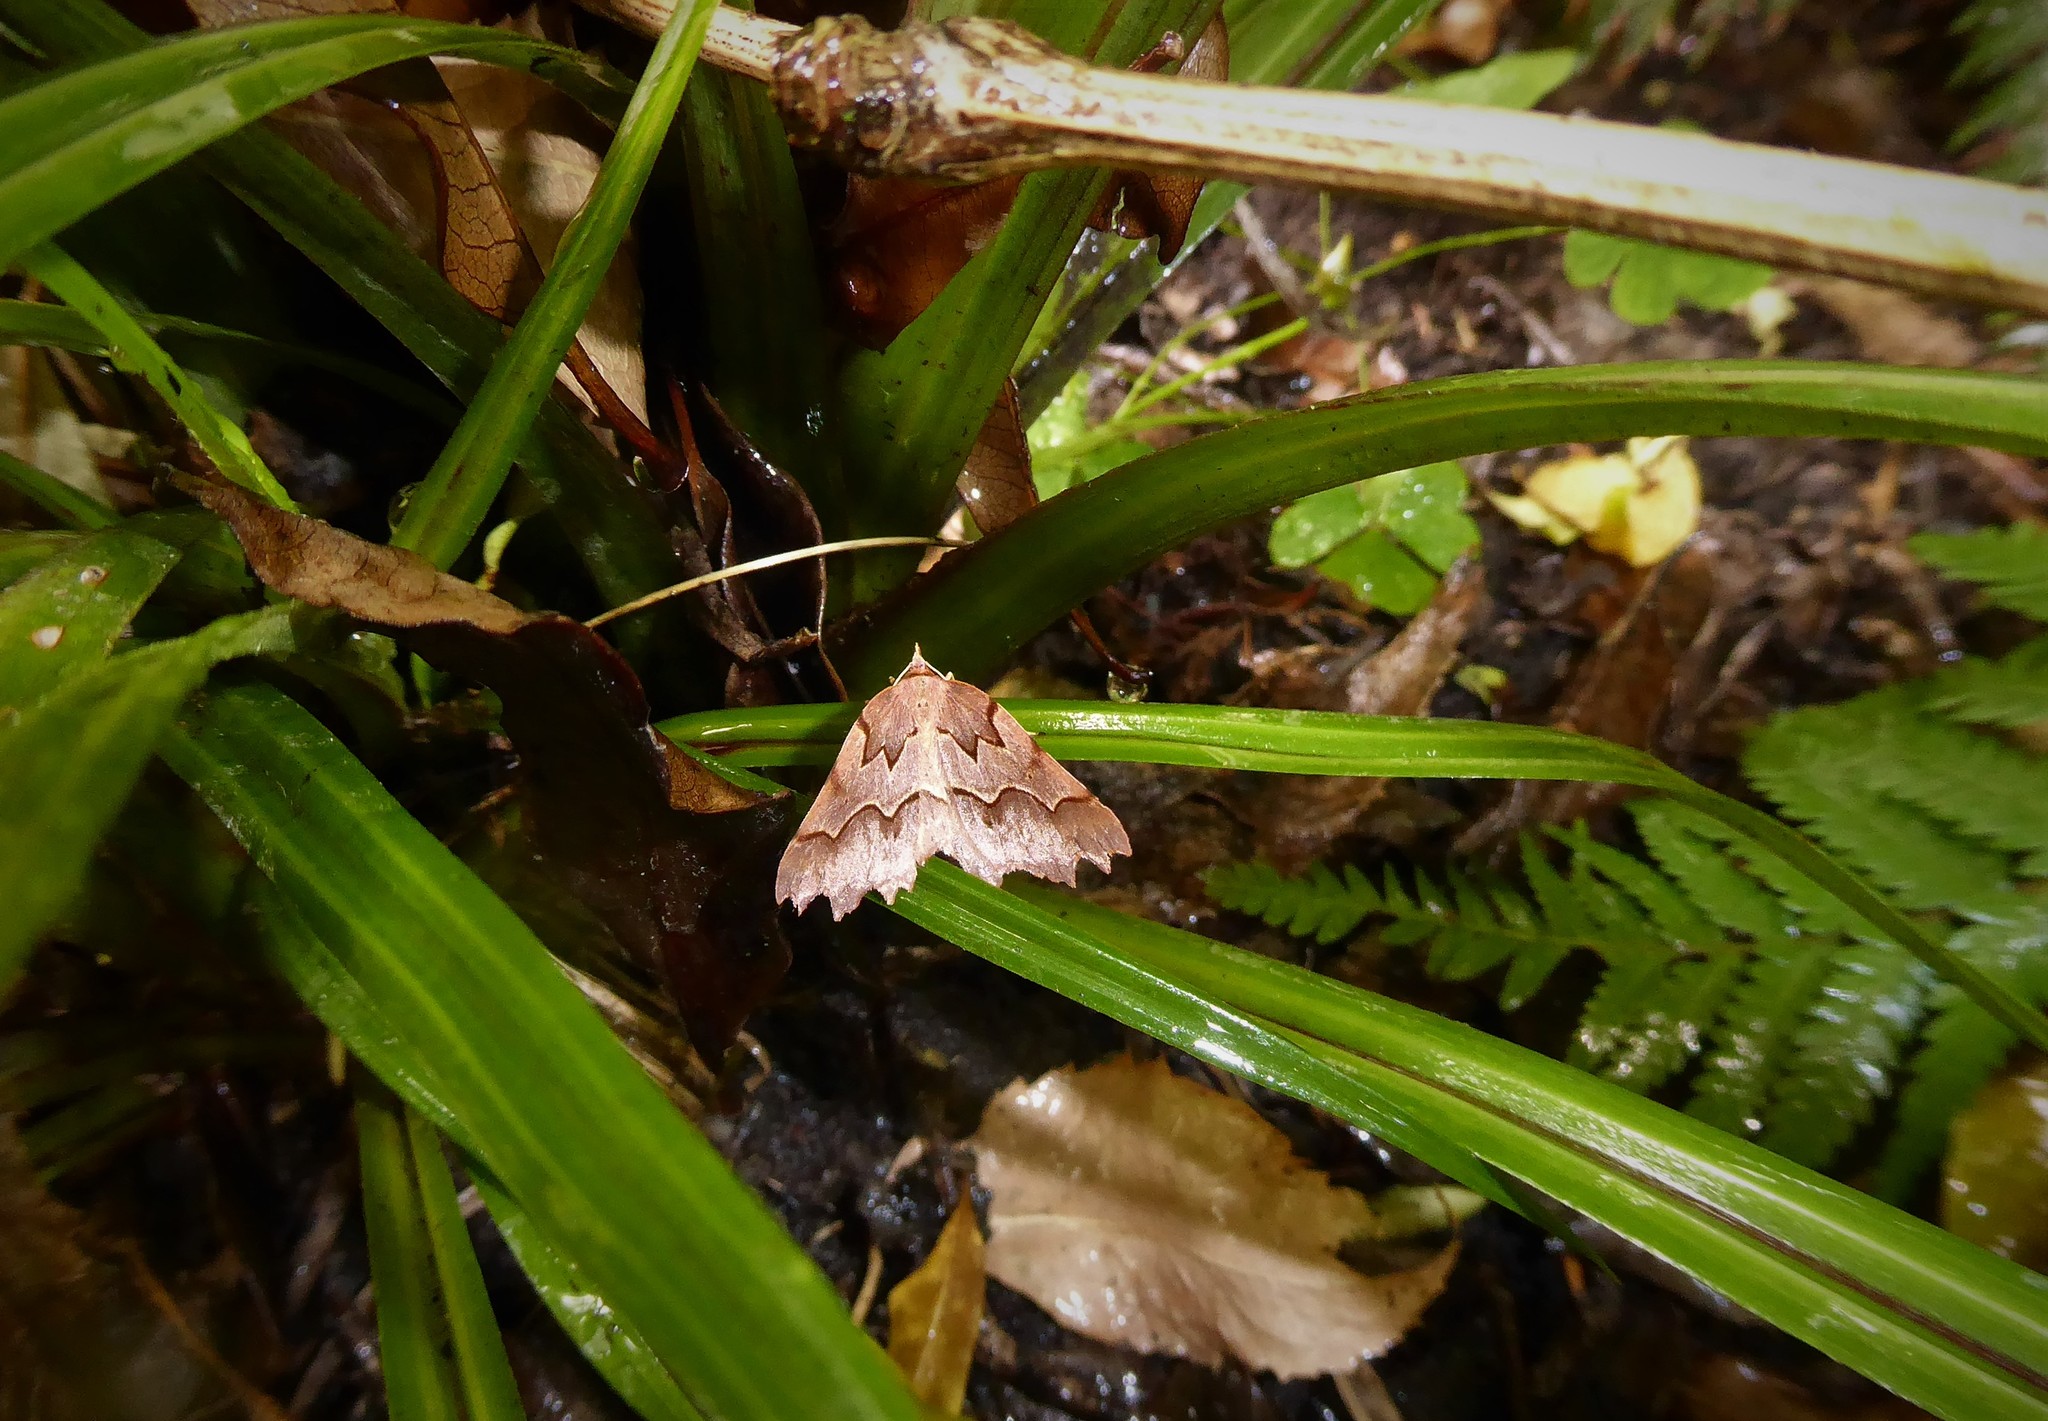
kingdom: Animalia
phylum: Arthropoda
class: Insecta
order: Lepidoptera
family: Geometridae
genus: Ischalis
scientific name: Ischalis fortinata
